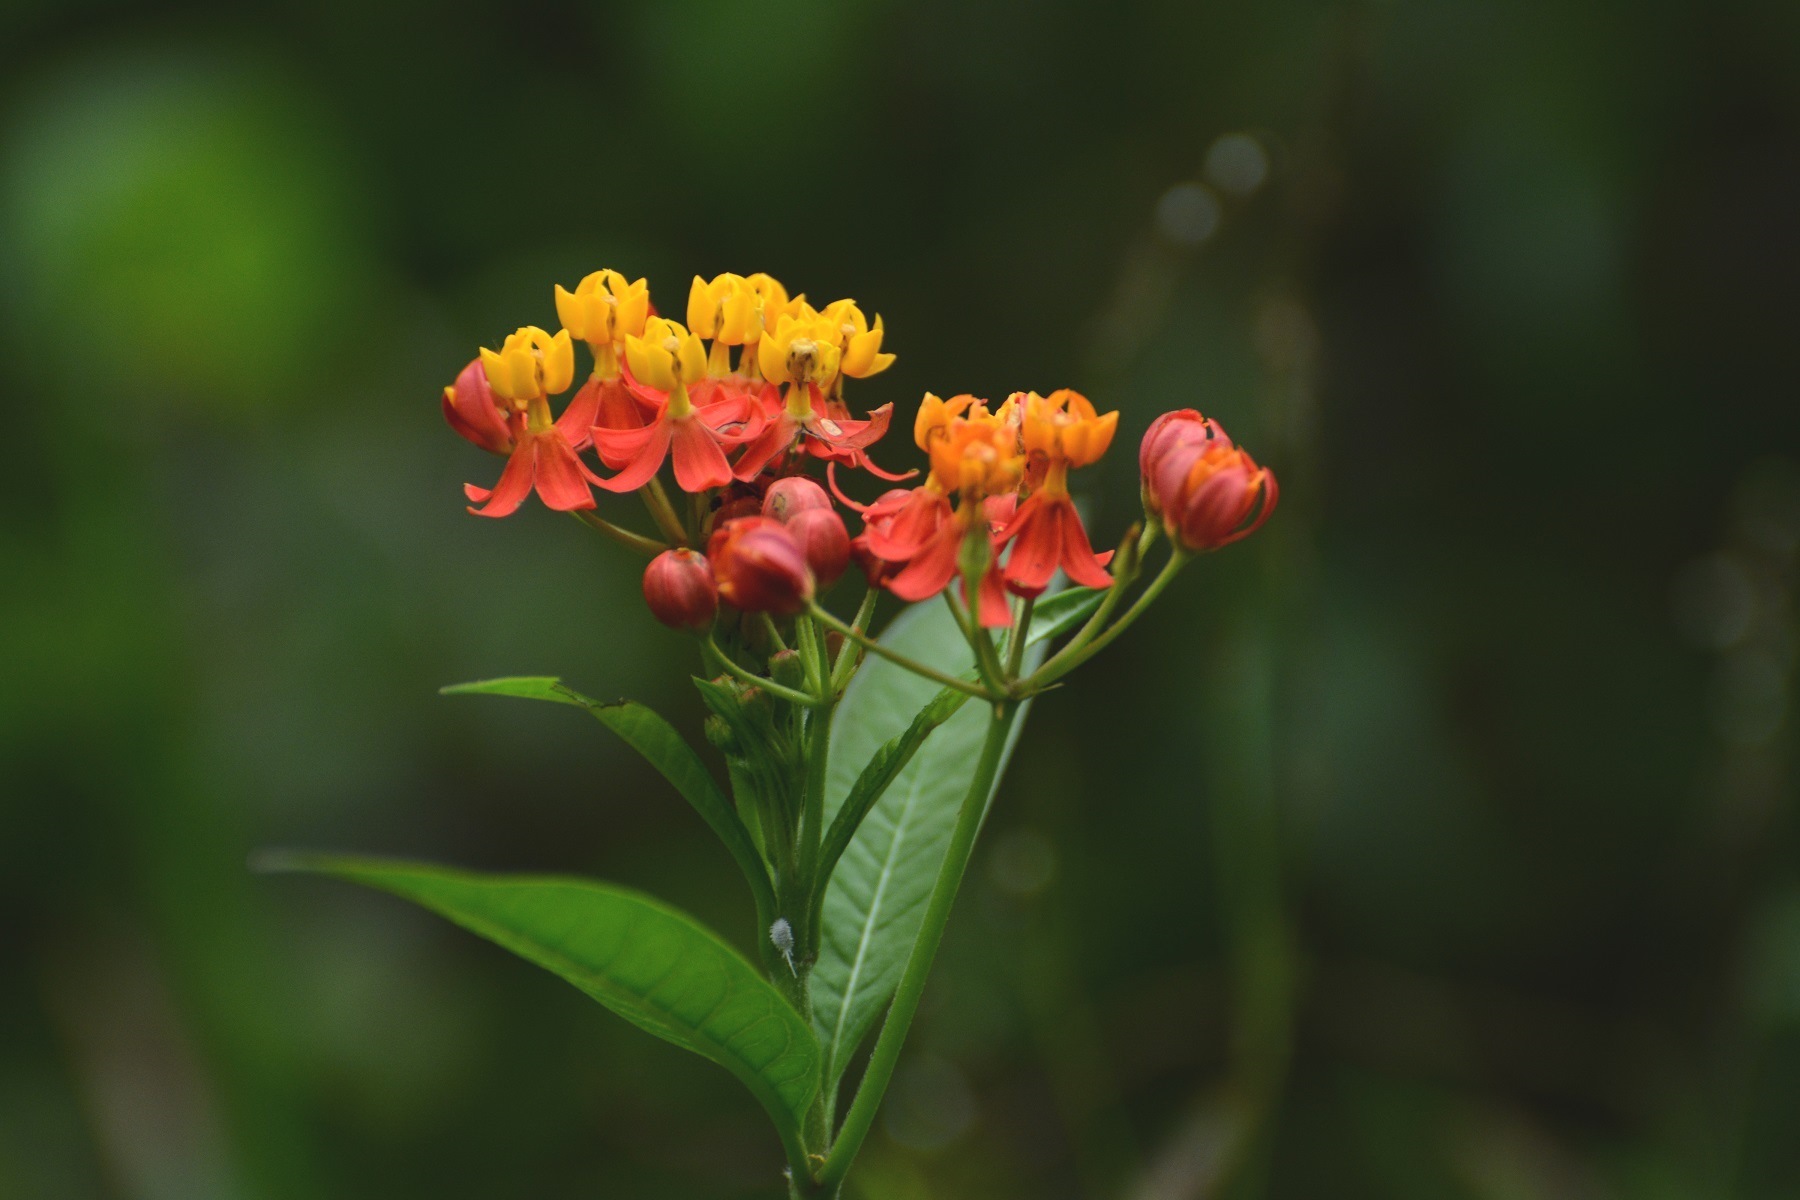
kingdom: Plantae
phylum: Tracheophyta
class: Magnoliopsida
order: Gentianales
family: Apocynaceae
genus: Asclepias
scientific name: Asclepias curassavica
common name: Bloodflower
